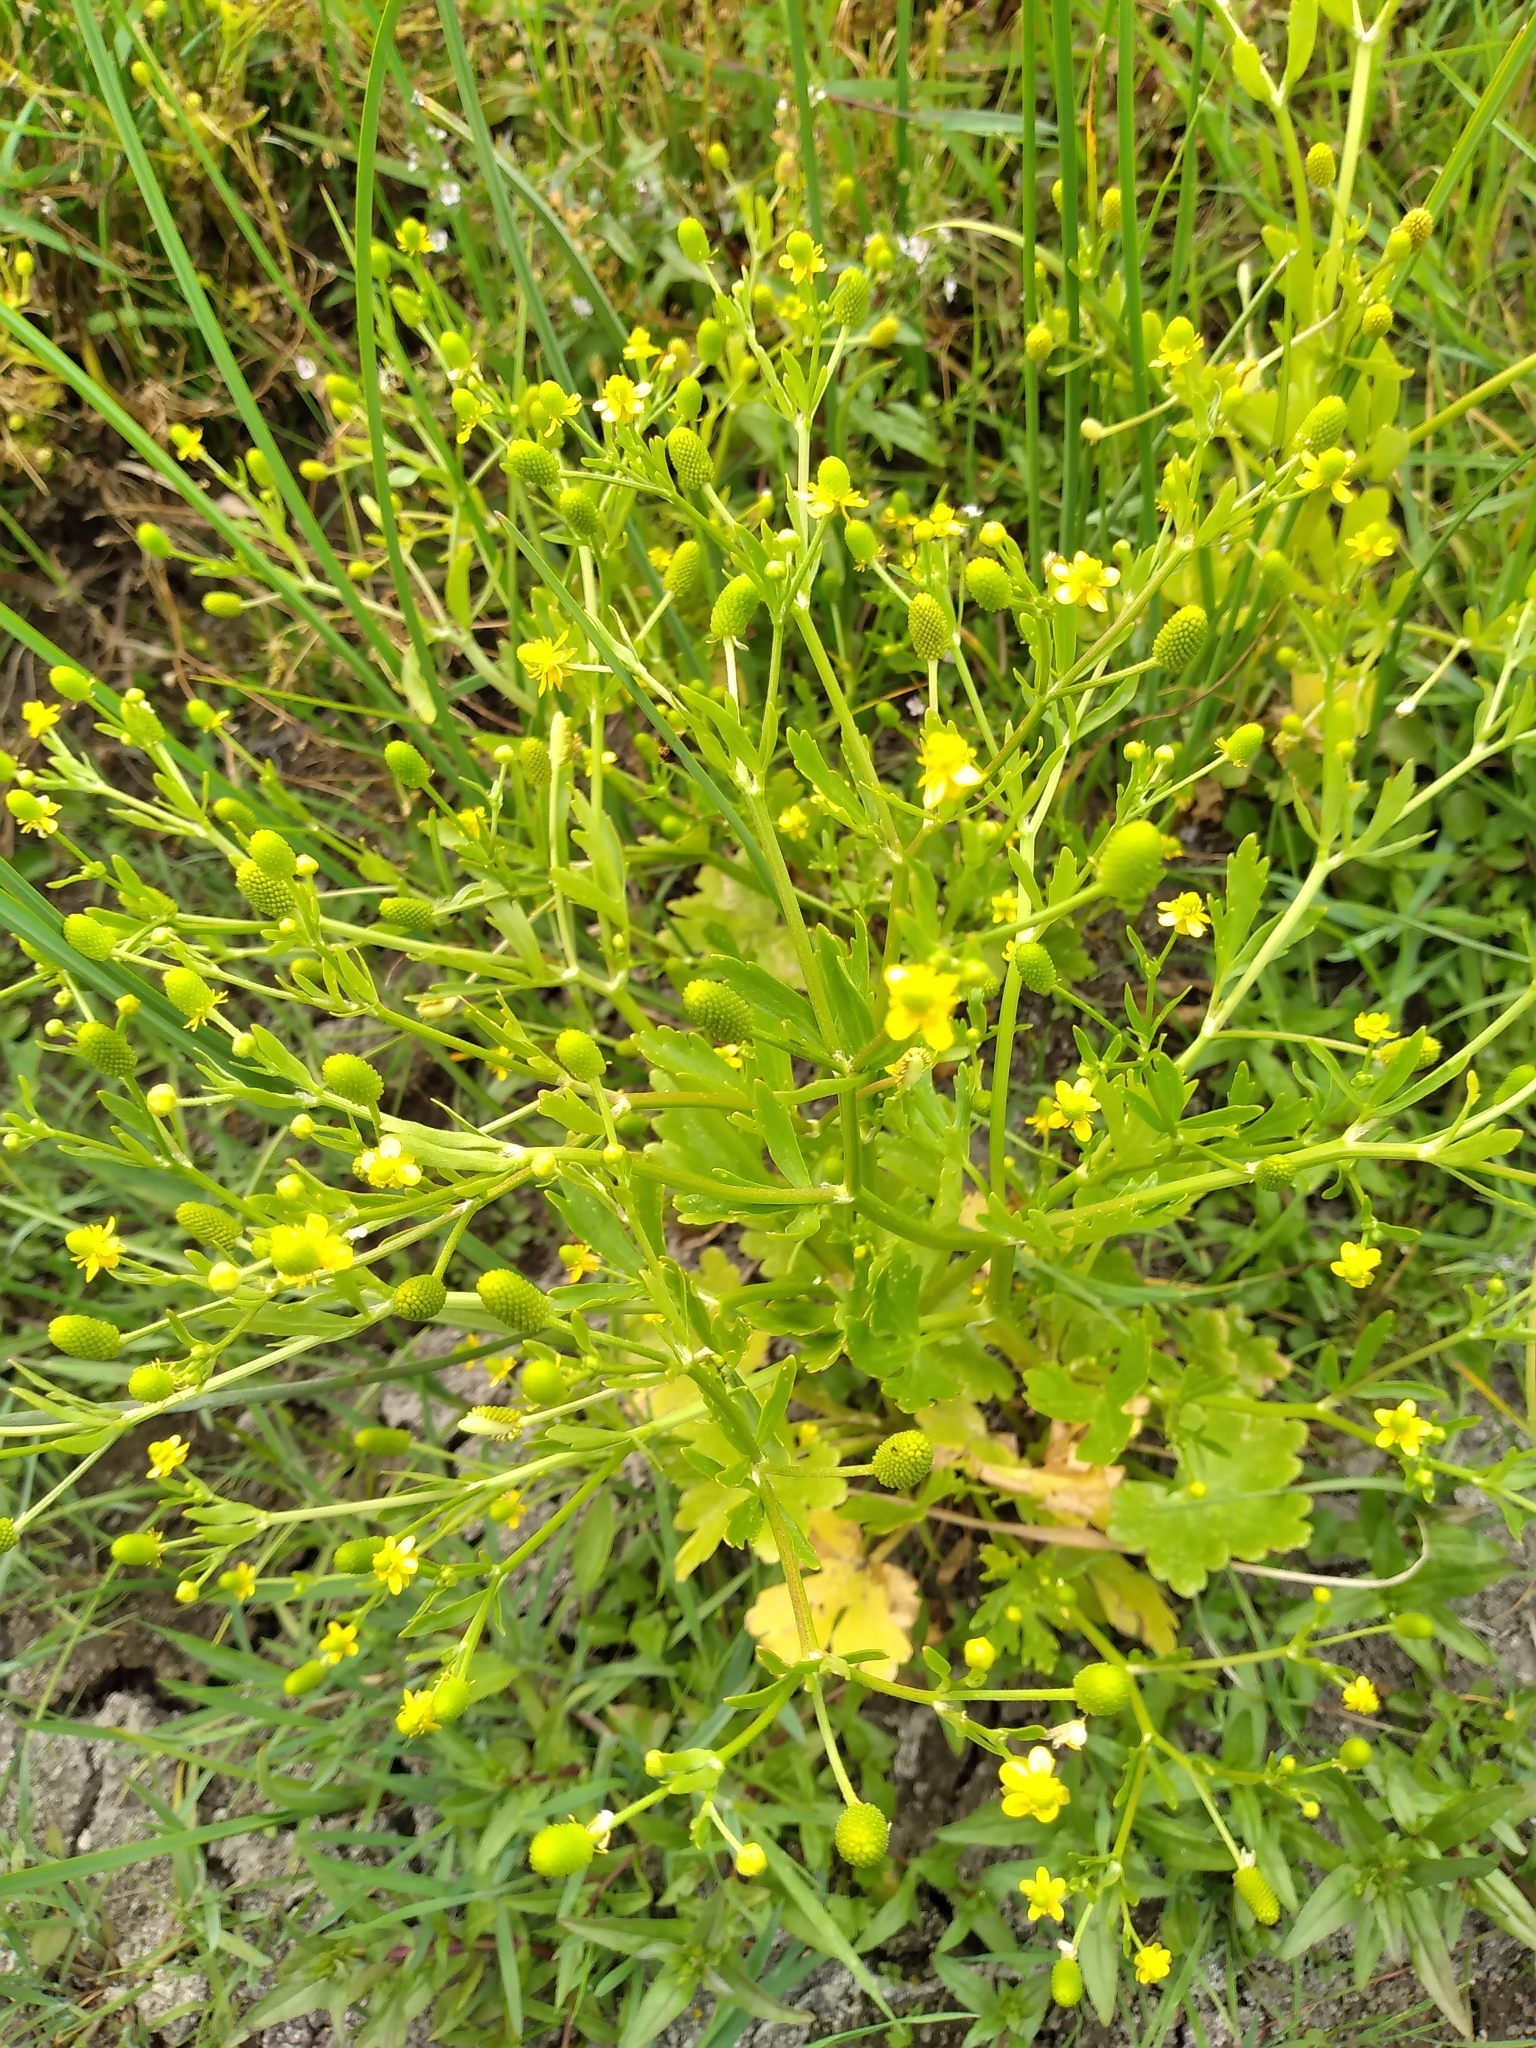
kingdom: Plantae
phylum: Tracheophyta
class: Magnoliopsida
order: Ranunculales
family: Ranunculaceae
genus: Ranunculus
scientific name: Ranunculus sceleratus
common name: Celery-leaved buttercup
